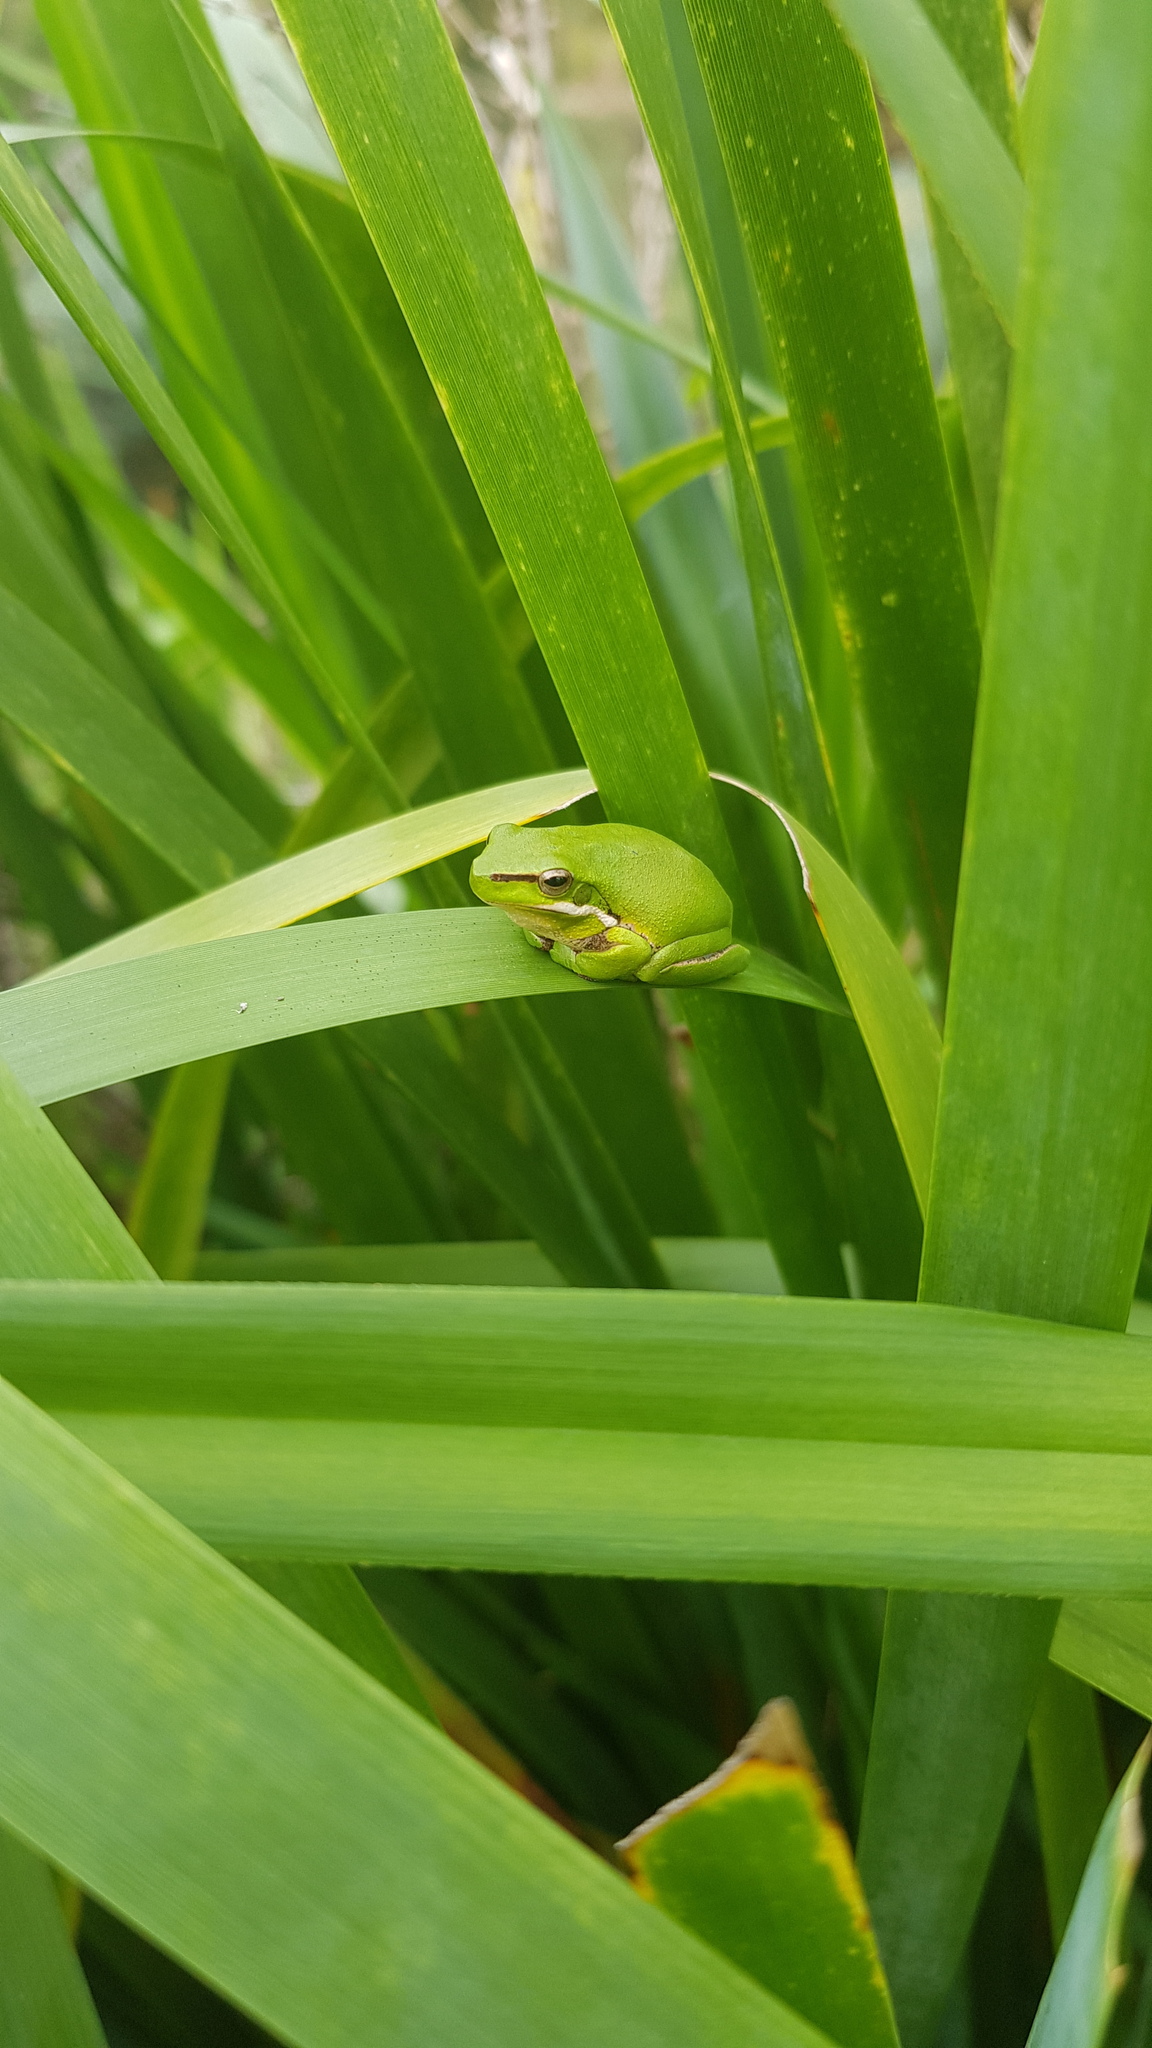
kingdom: Animalia
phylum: Chordata
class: Amphibia
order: Anura
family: Pelodryadidae
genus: Litoria
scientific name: Litoria fallax
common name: Eastern dwarf treefrog
